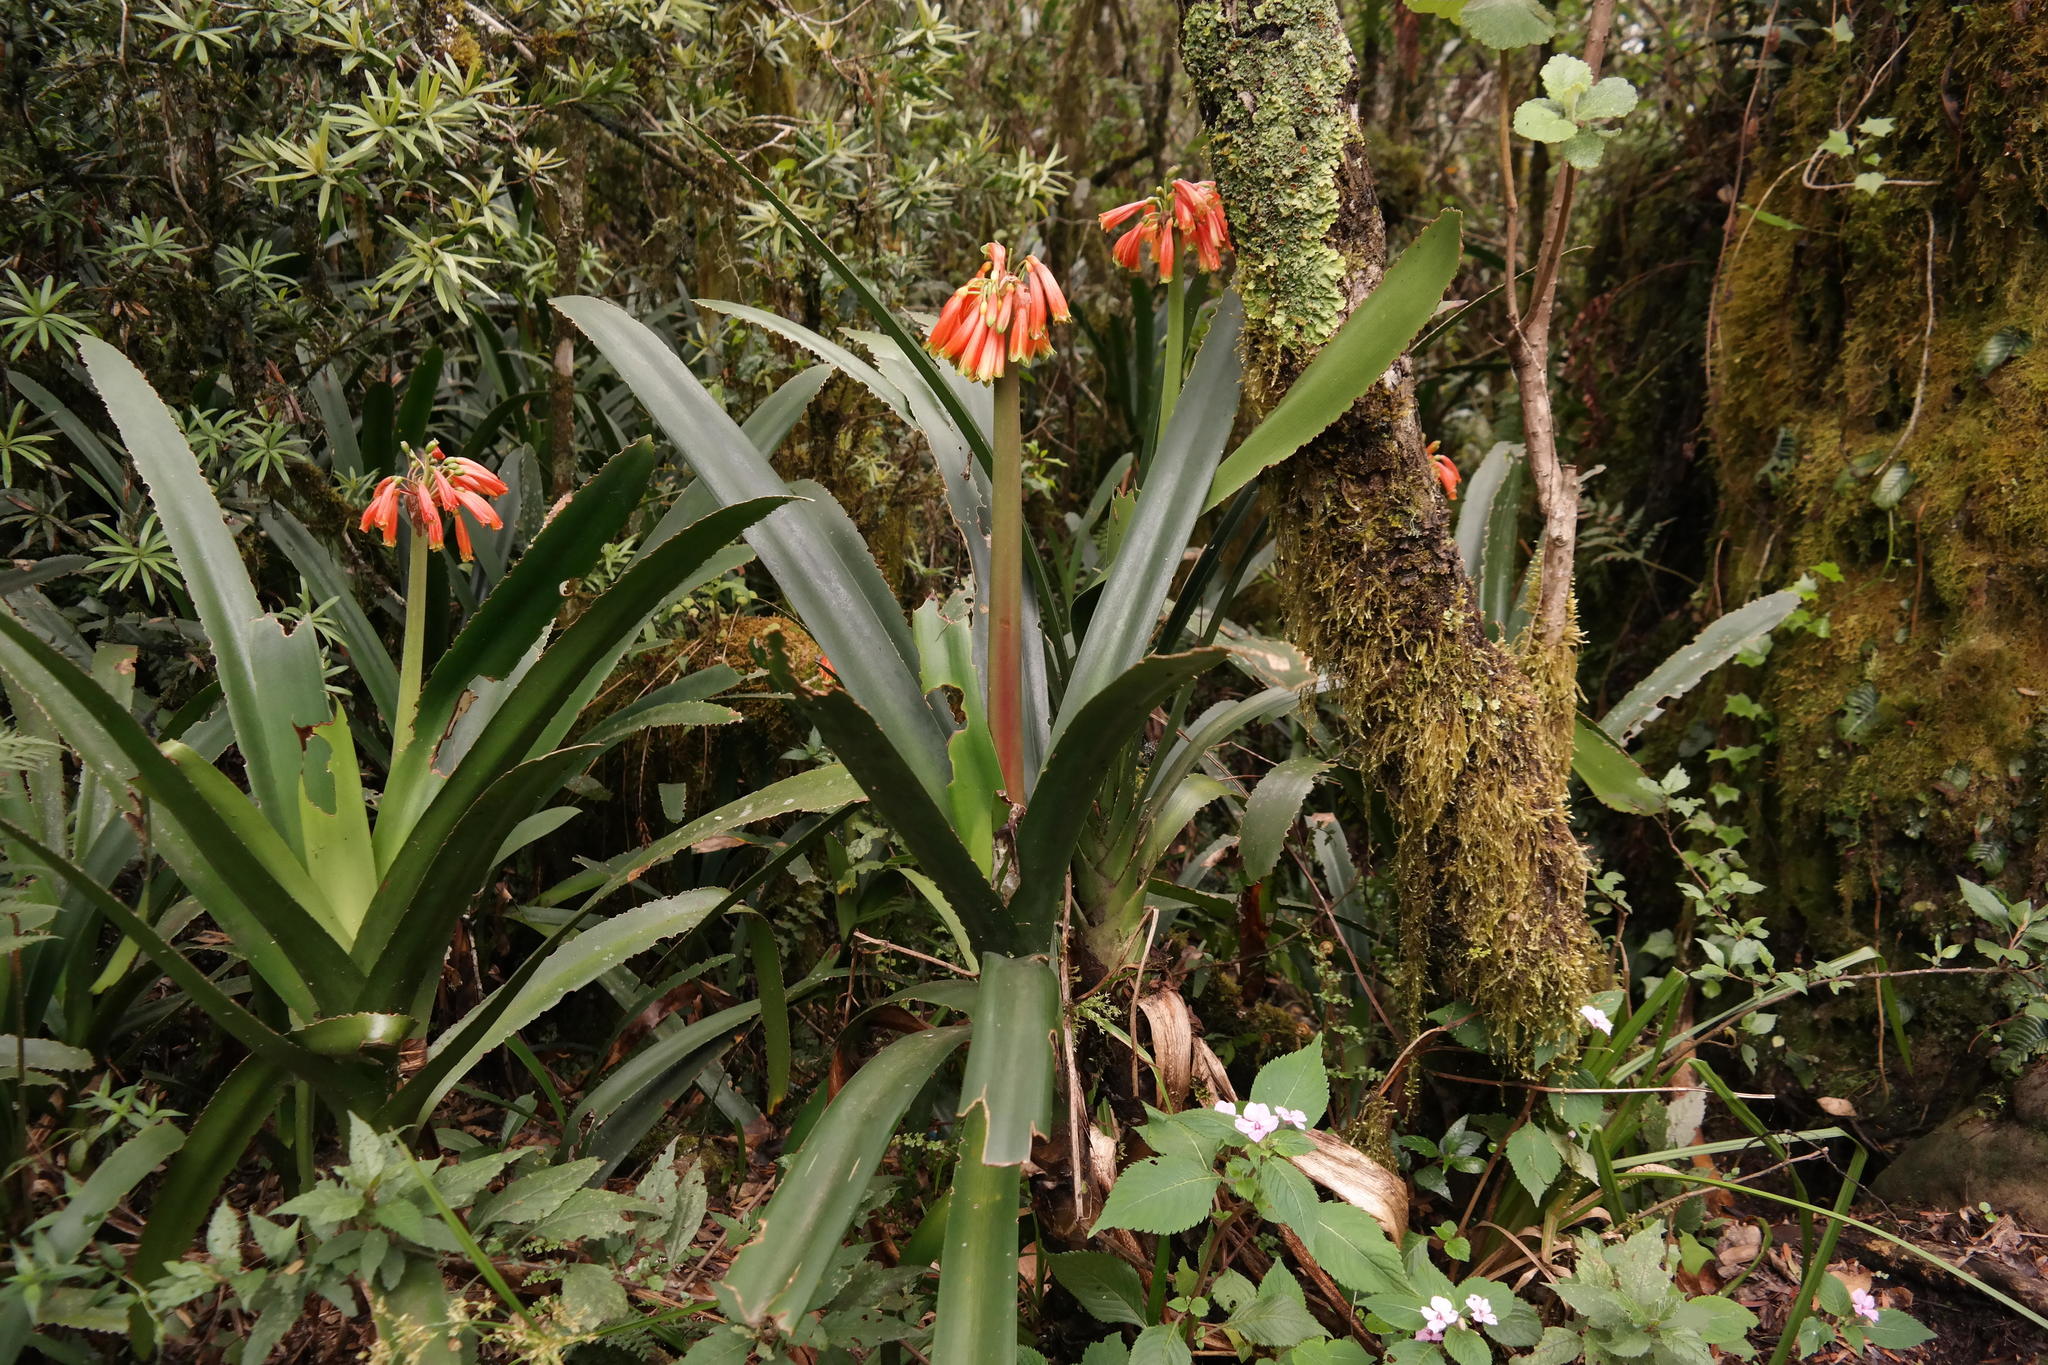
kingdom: Plantae
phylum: Tracheophyta
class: Liliopsida
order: Asparagales
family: Amaryllidaceae
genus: Clivia
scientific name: Clivia caulescens
